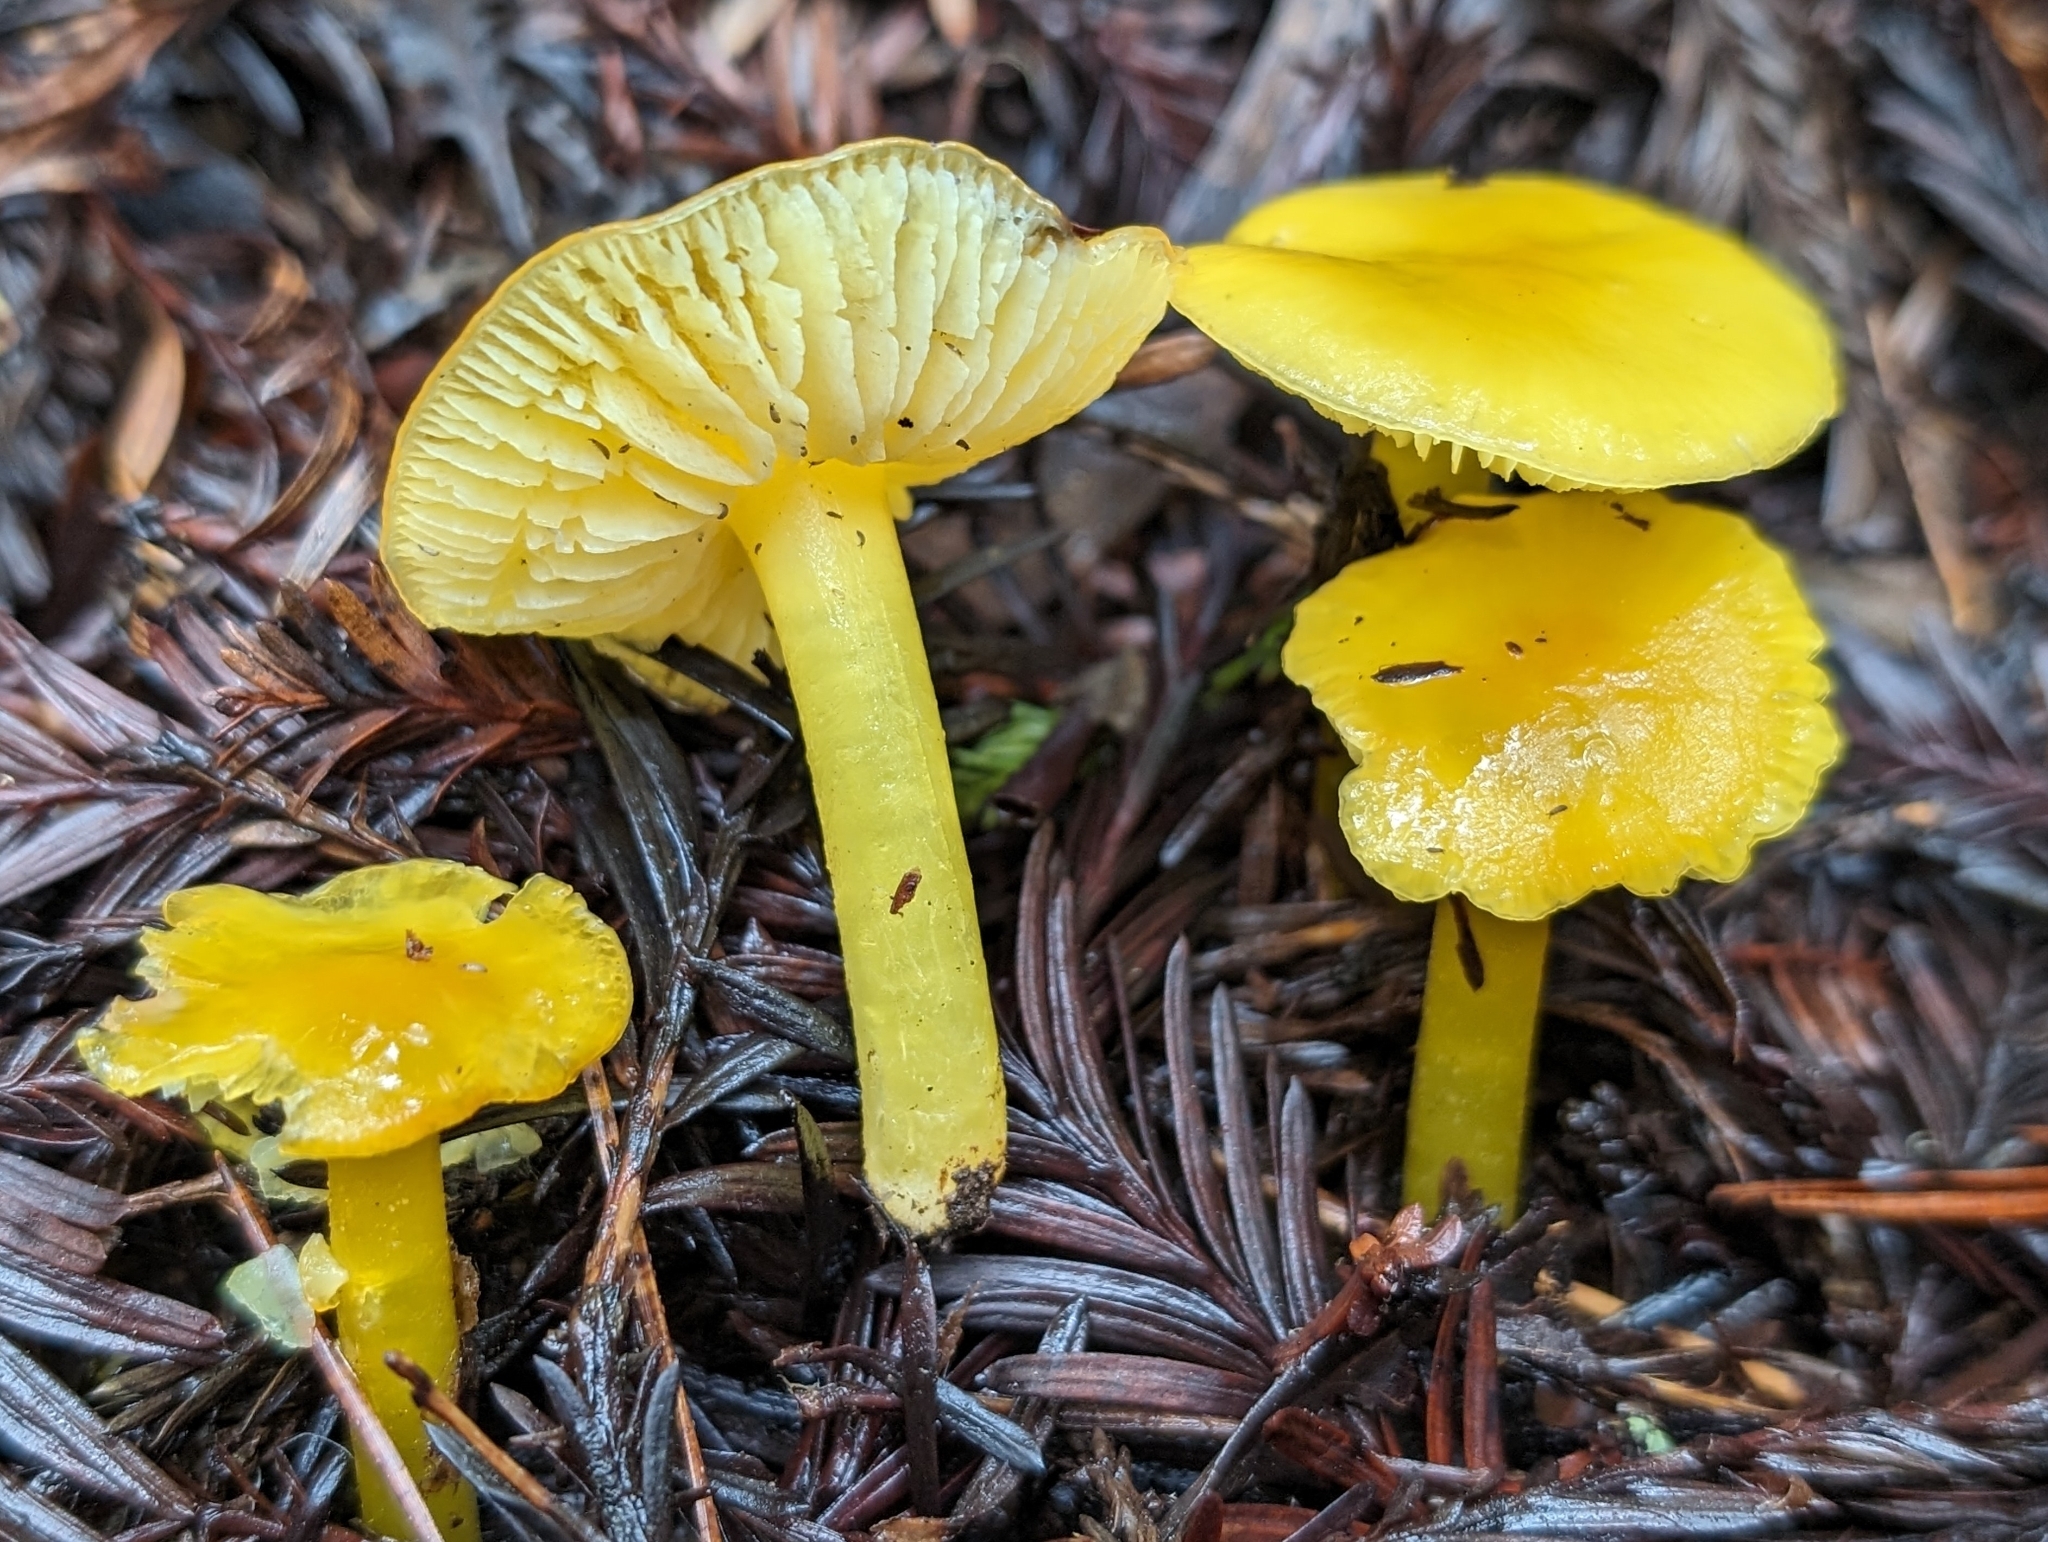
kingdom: Fungi
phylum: Basidiomycota
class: Agaricomycetes
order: Agaricales
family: Hygrophoraceae
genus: Hygrocybe
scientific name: Hygrocybe flavescens
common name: Golden waxy cap
